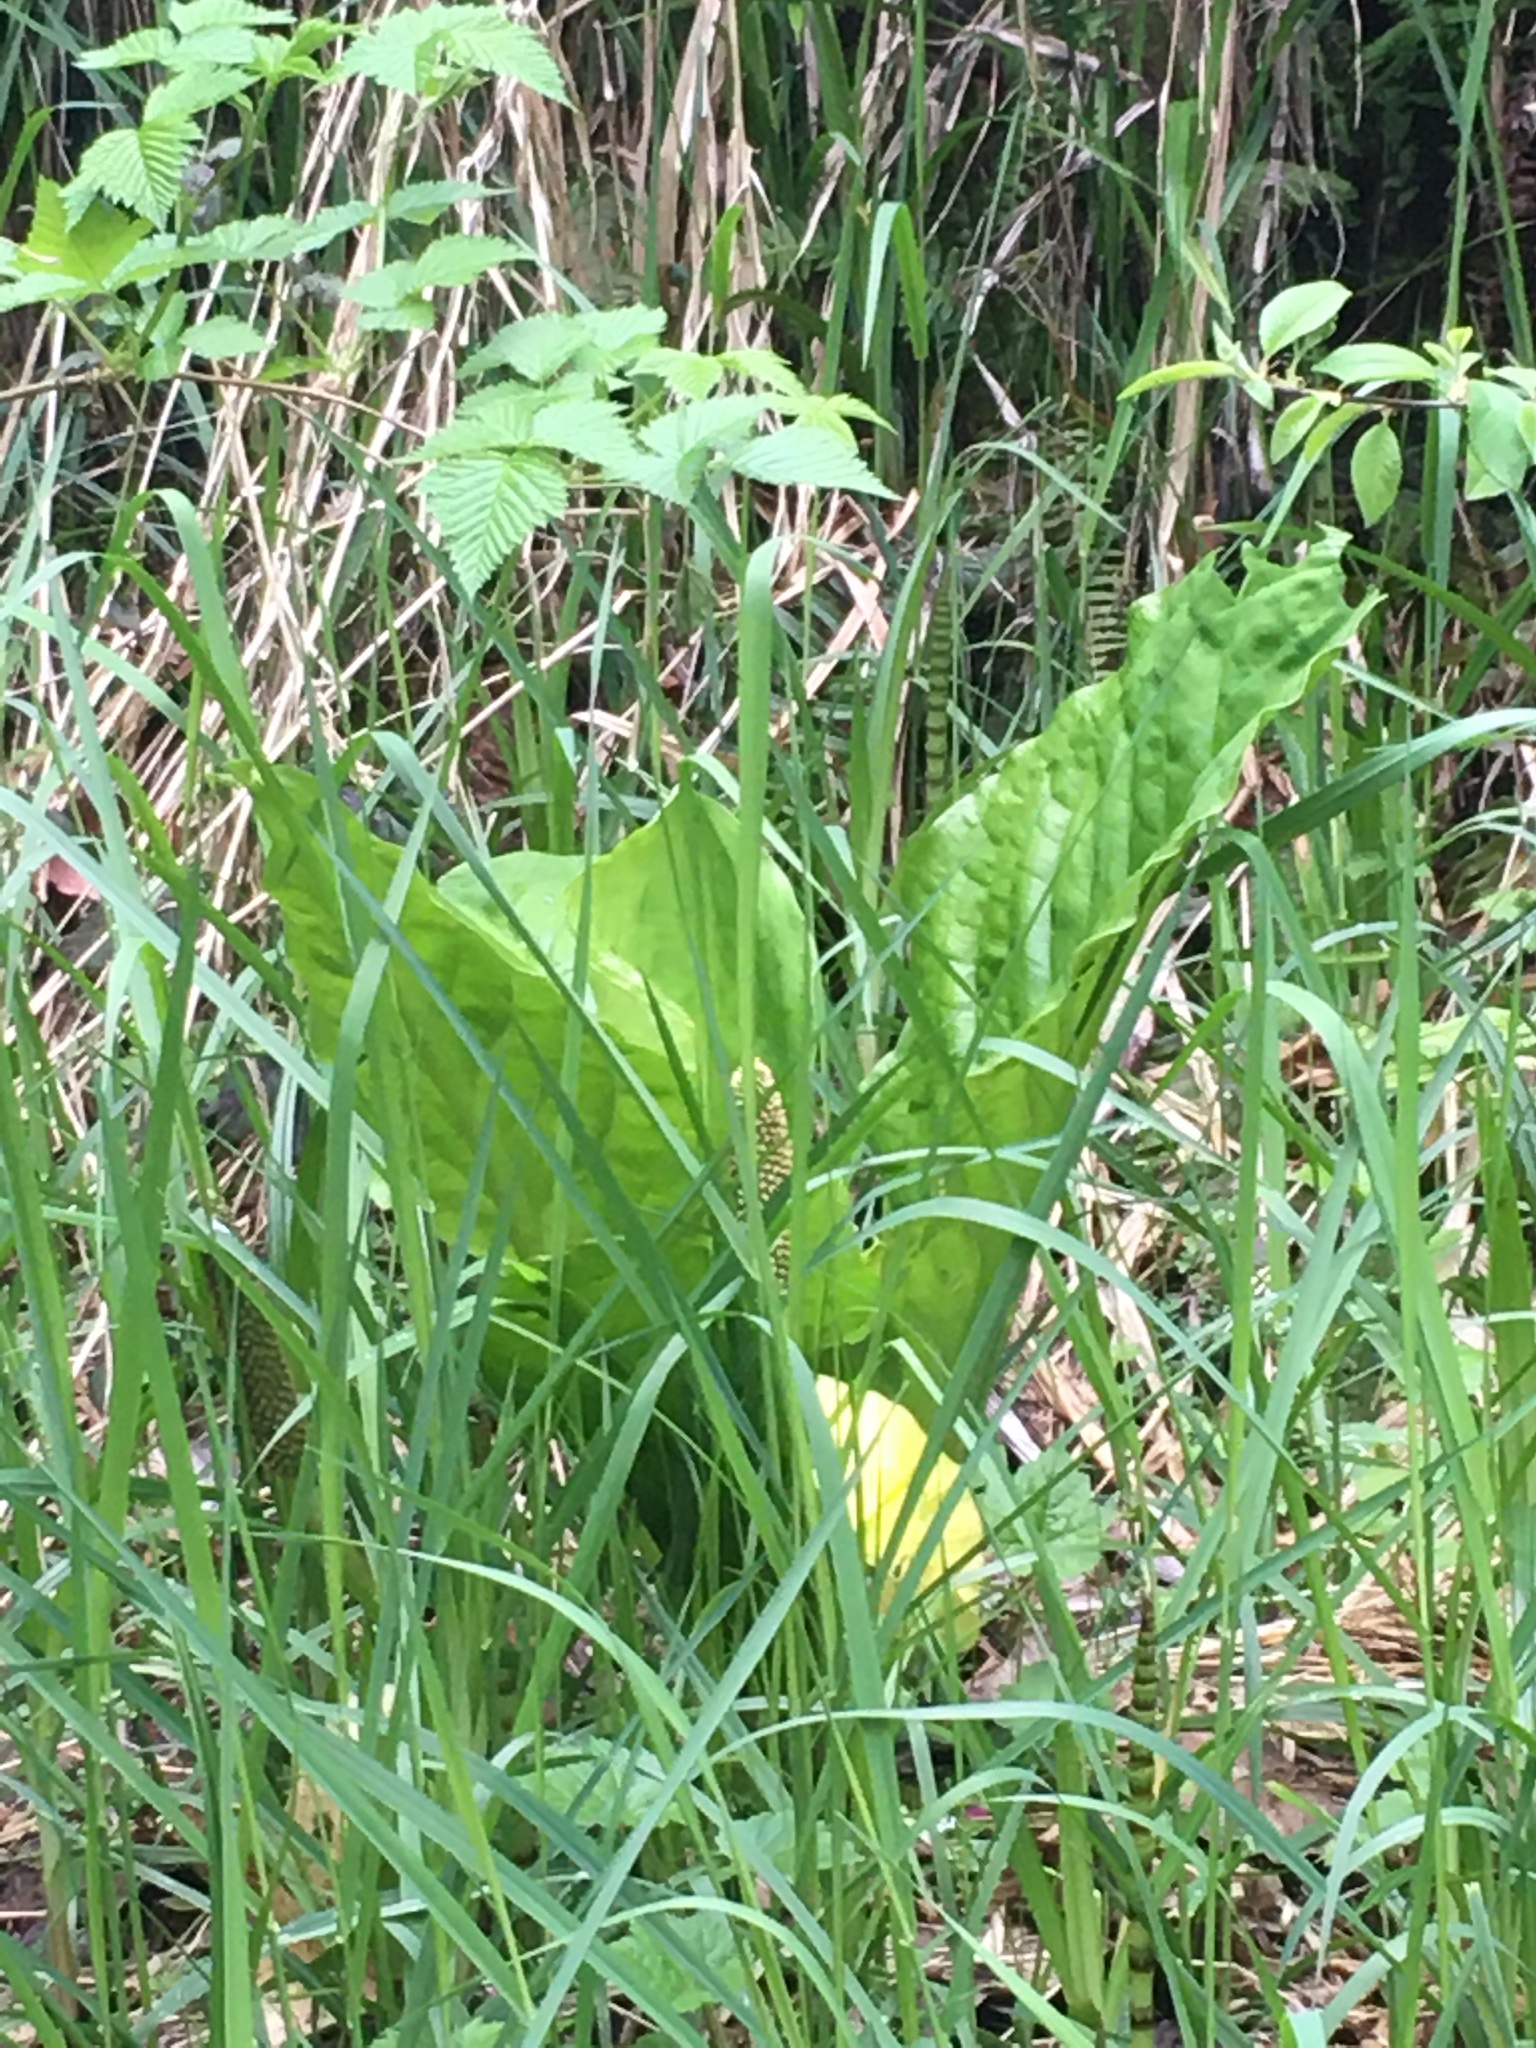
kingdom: Plantae
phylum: Tracheophyta
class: Liliopsida
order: Alismatales
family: Araceae
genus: Lysichiton
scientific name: Lysichiton americanus
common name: American skunk cabbage
